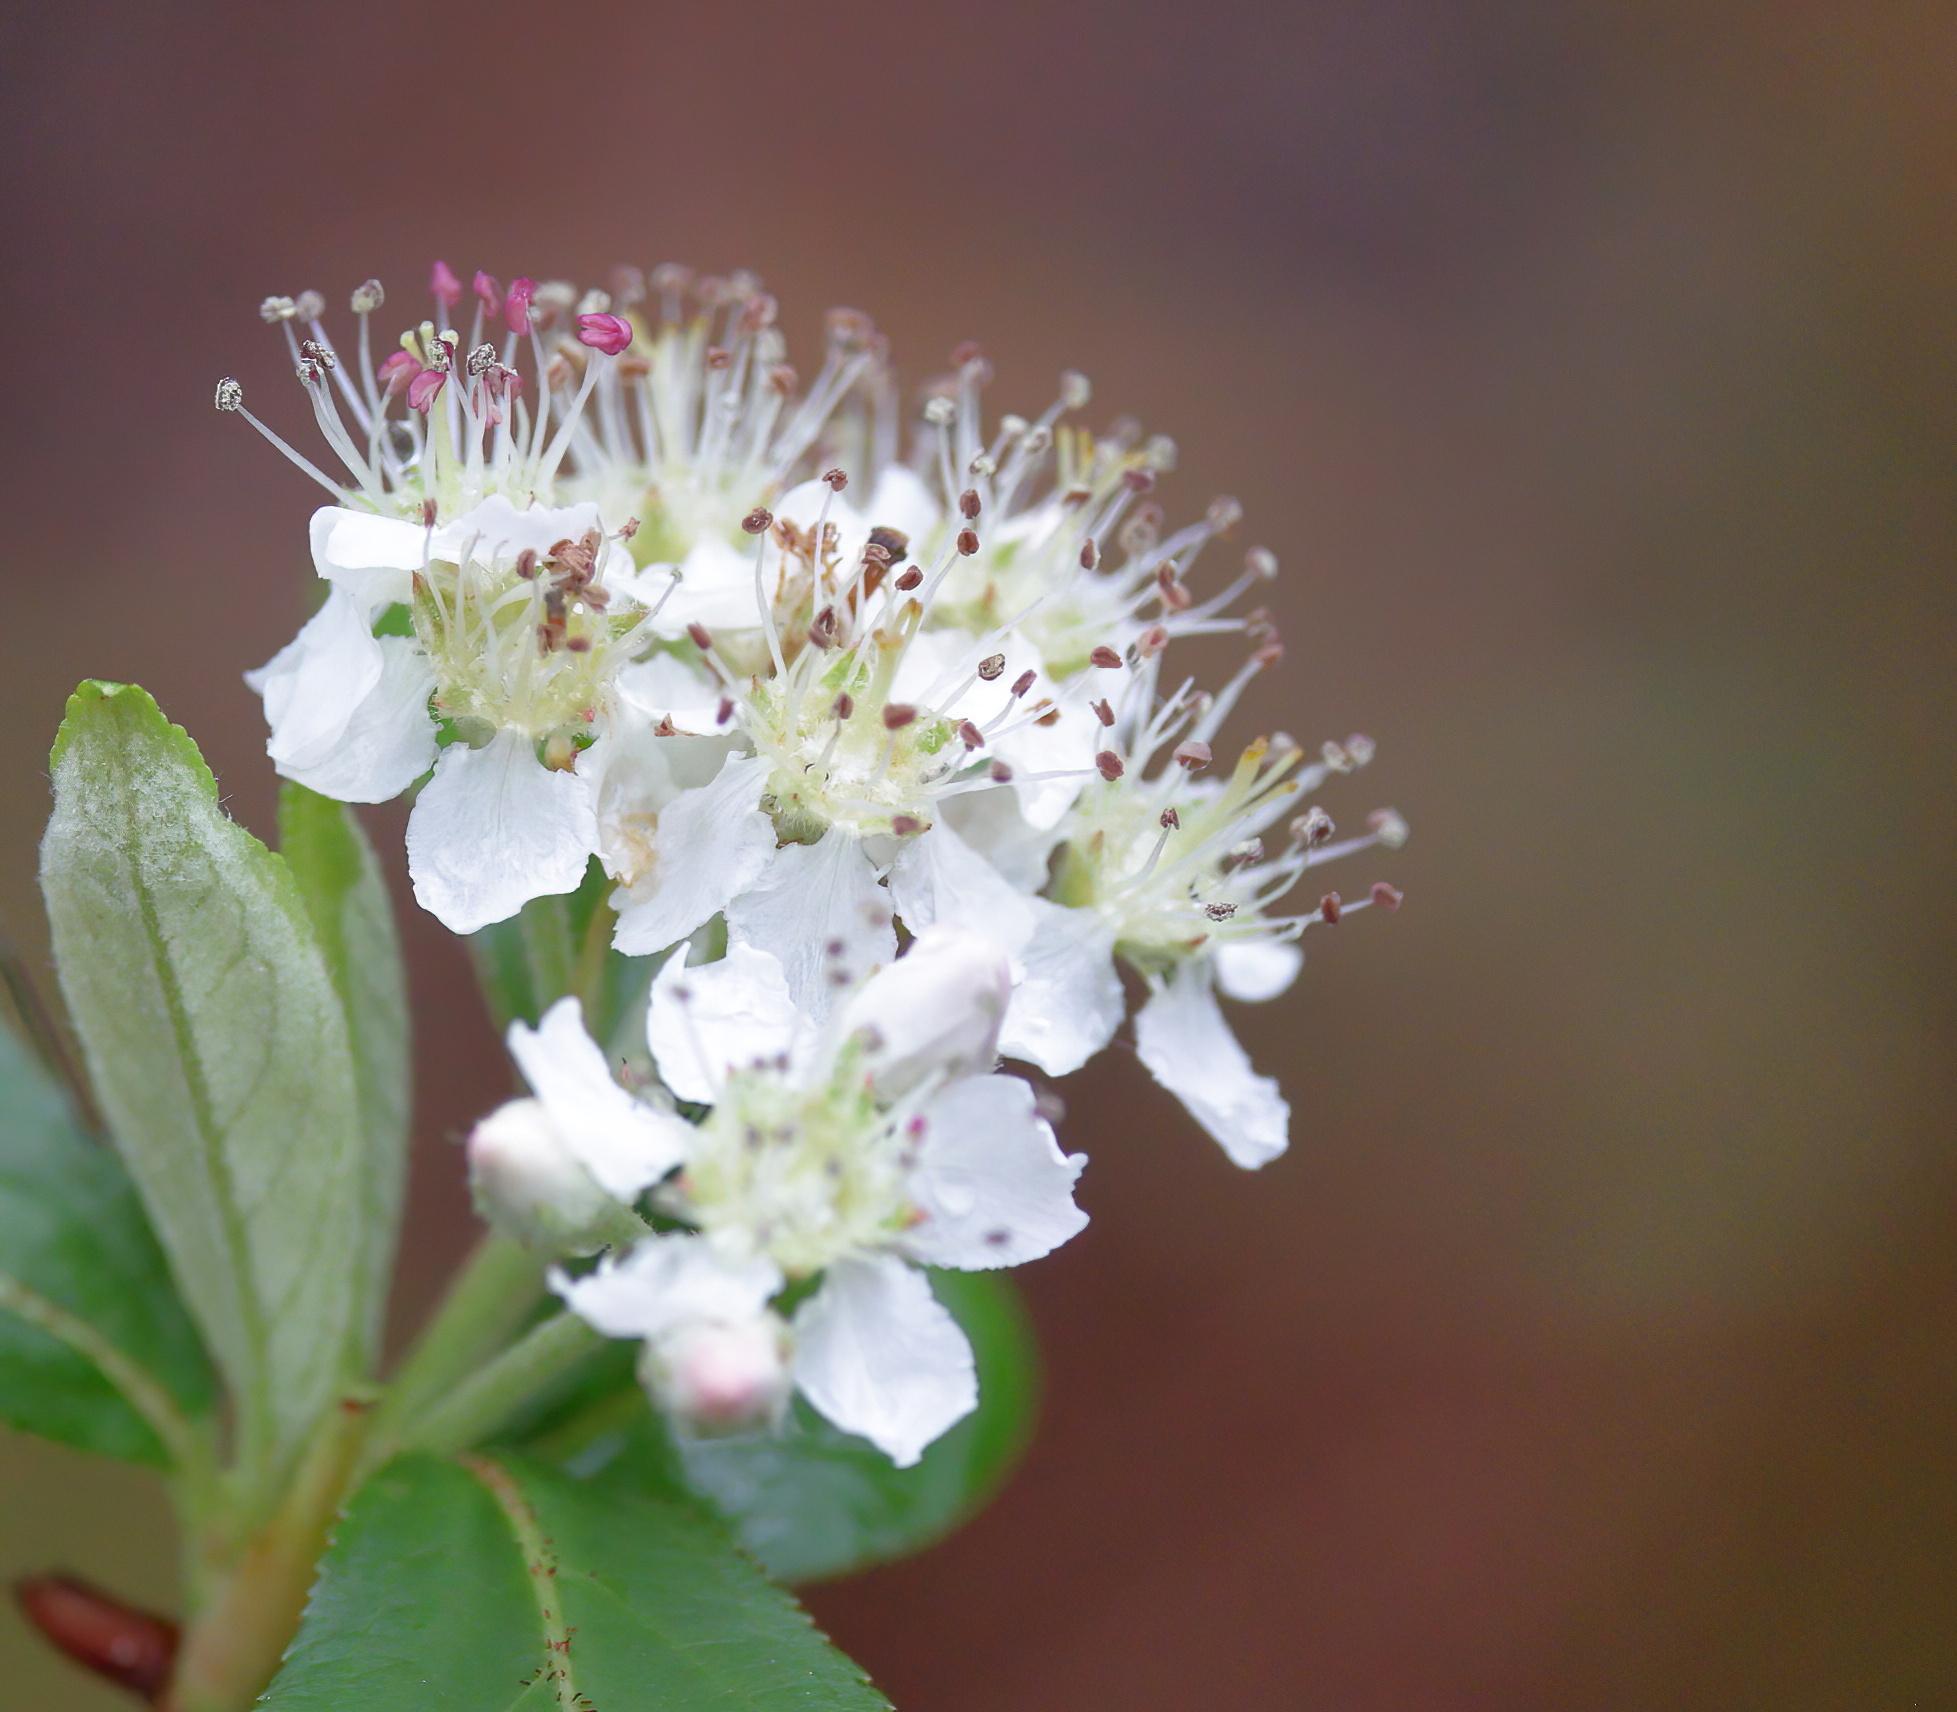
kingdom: Plantae
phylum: Tracheophyta
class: Magnoliopsida
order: Rosales
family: Rosaceae
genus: Aronia
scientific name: Aronia arbutifolia
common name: Red chokeberry
